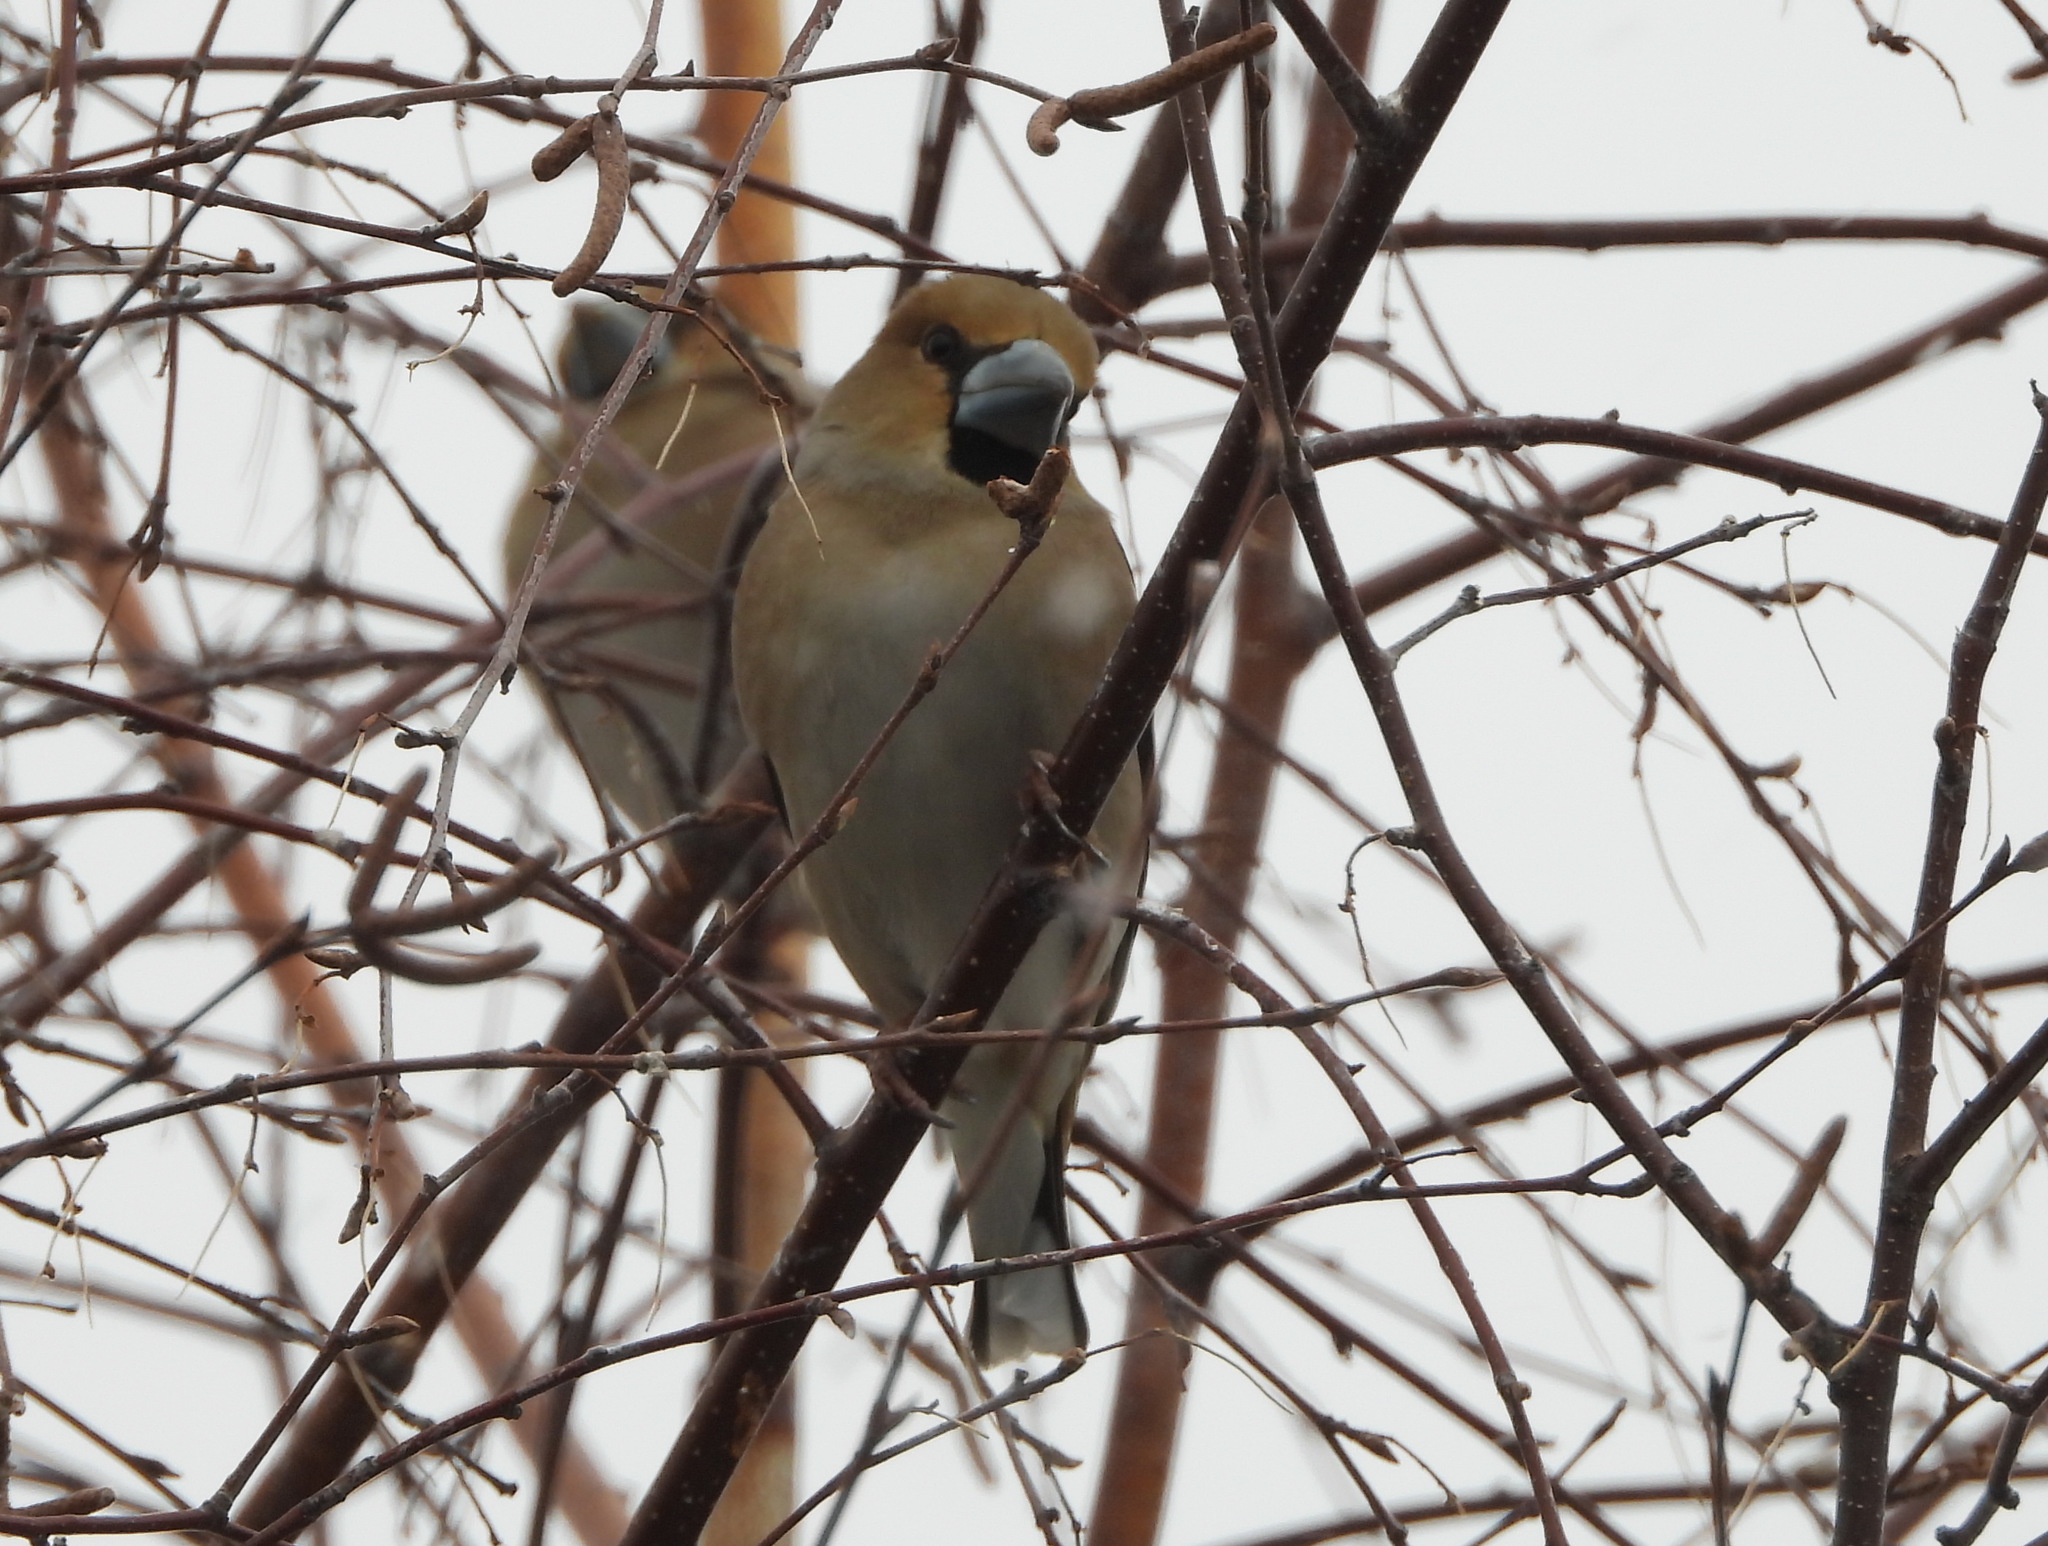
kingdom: Animalia
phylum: Chordata
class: Aves
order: Passeriformes
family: Fringillidae
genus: Coccothraustes
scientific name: Coccothraustes coccothraustes
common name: Hawfinch
